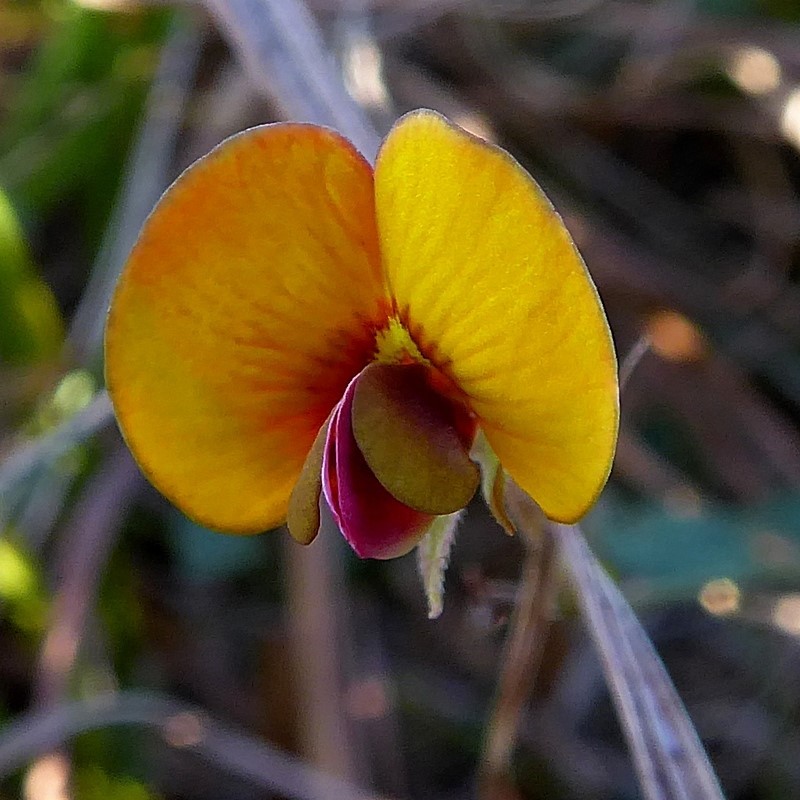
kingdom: Plantae
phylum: Tracheophyta
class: Magnoliopsida
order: Fabales
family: Fabaceae
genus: Bossiaea
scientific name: Bossiaea prostrata
